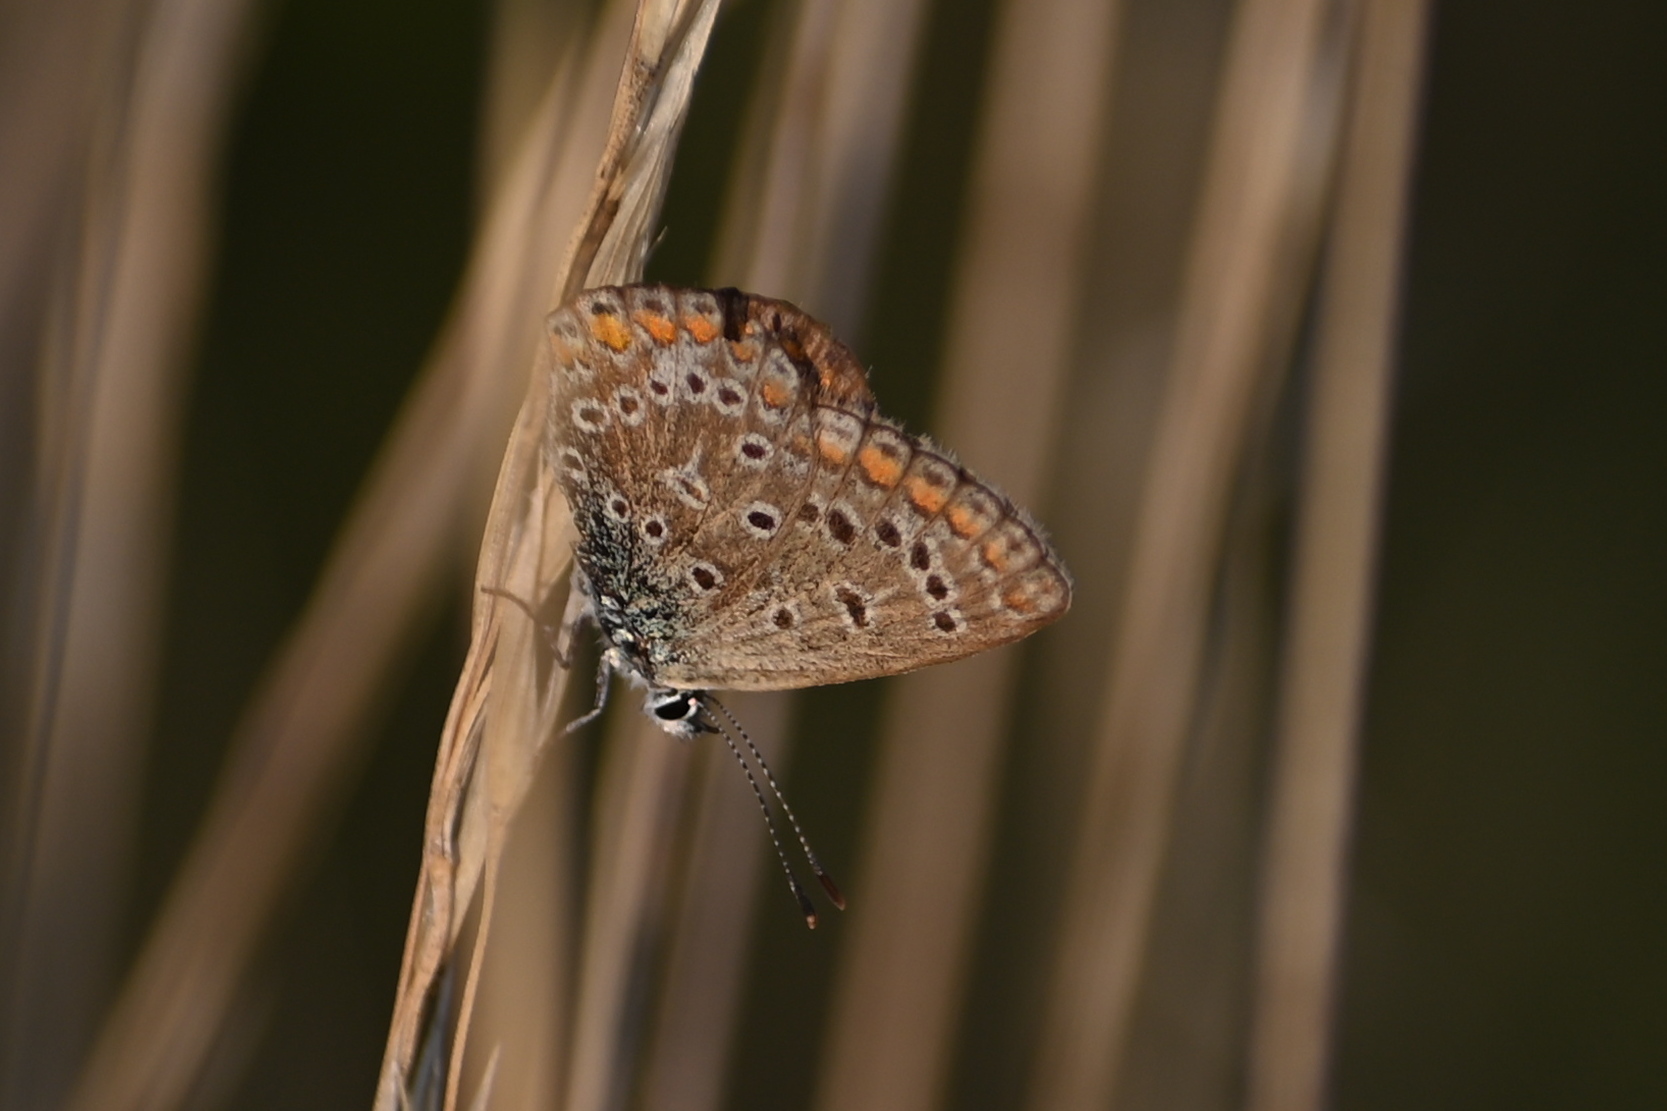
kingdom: Animalia
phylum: Arthropoda
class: Insecta
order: Lepidoptera
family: Lycaenidae
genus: Polyommatus
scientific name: Polyommatus icarus
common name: Common blue
